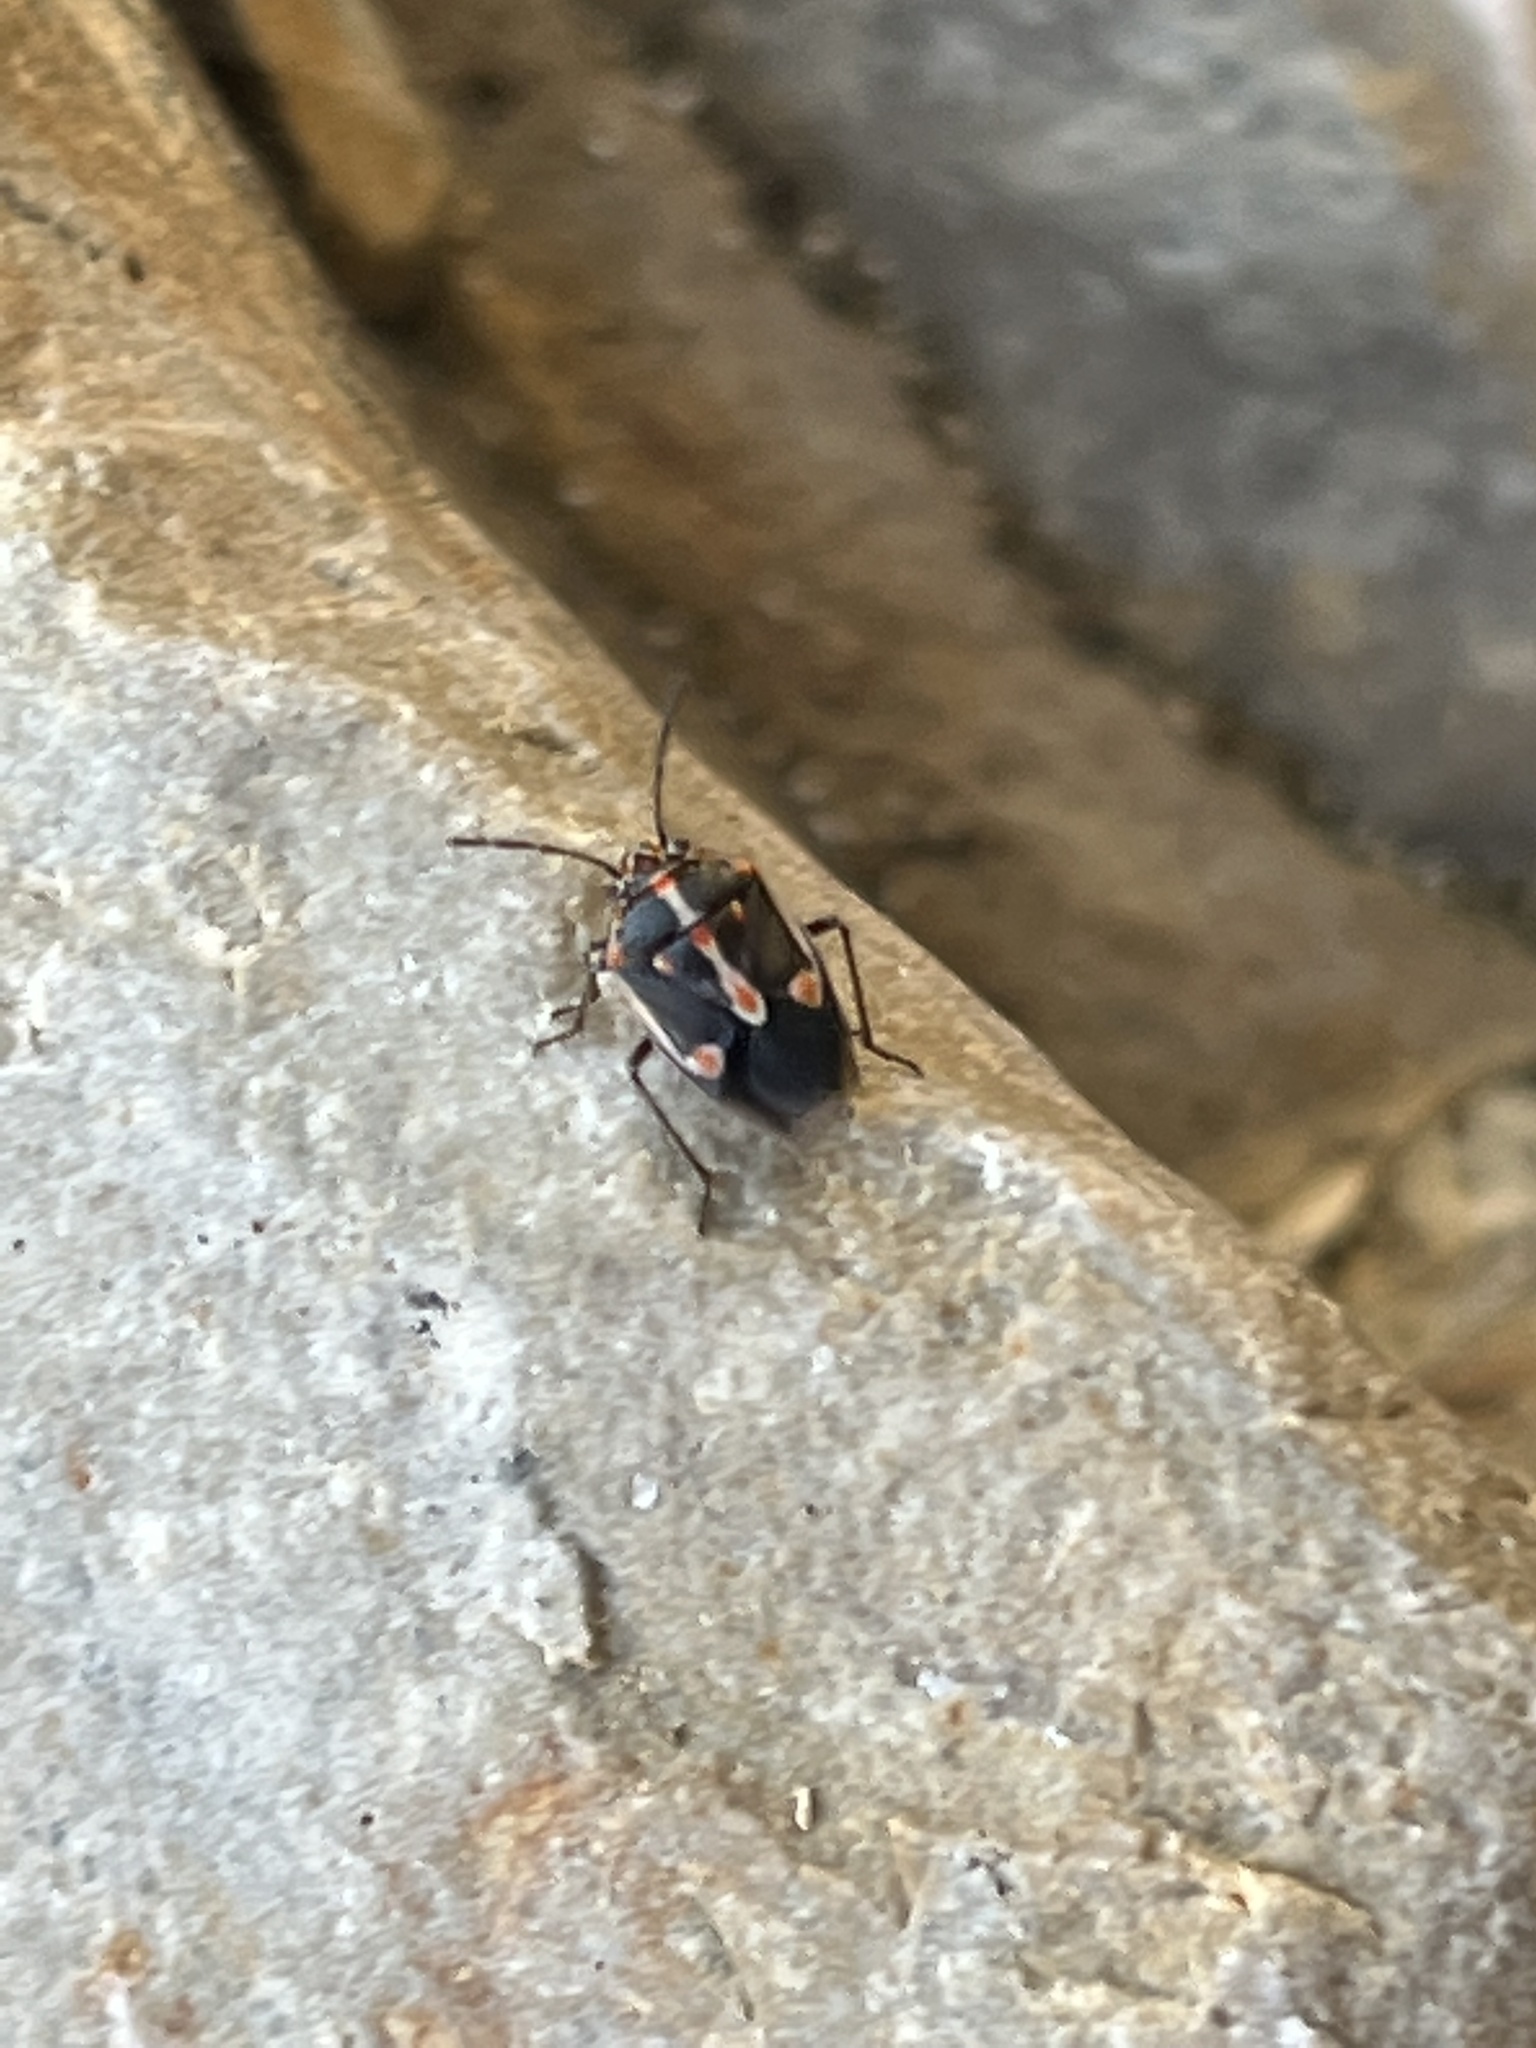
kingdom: Animalia
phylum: Arthropoda
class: Insecta
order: Hemiptera
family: Pentatomidae
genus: Bagrada
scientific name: Bagrada hilaris
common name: Bagrada bug
